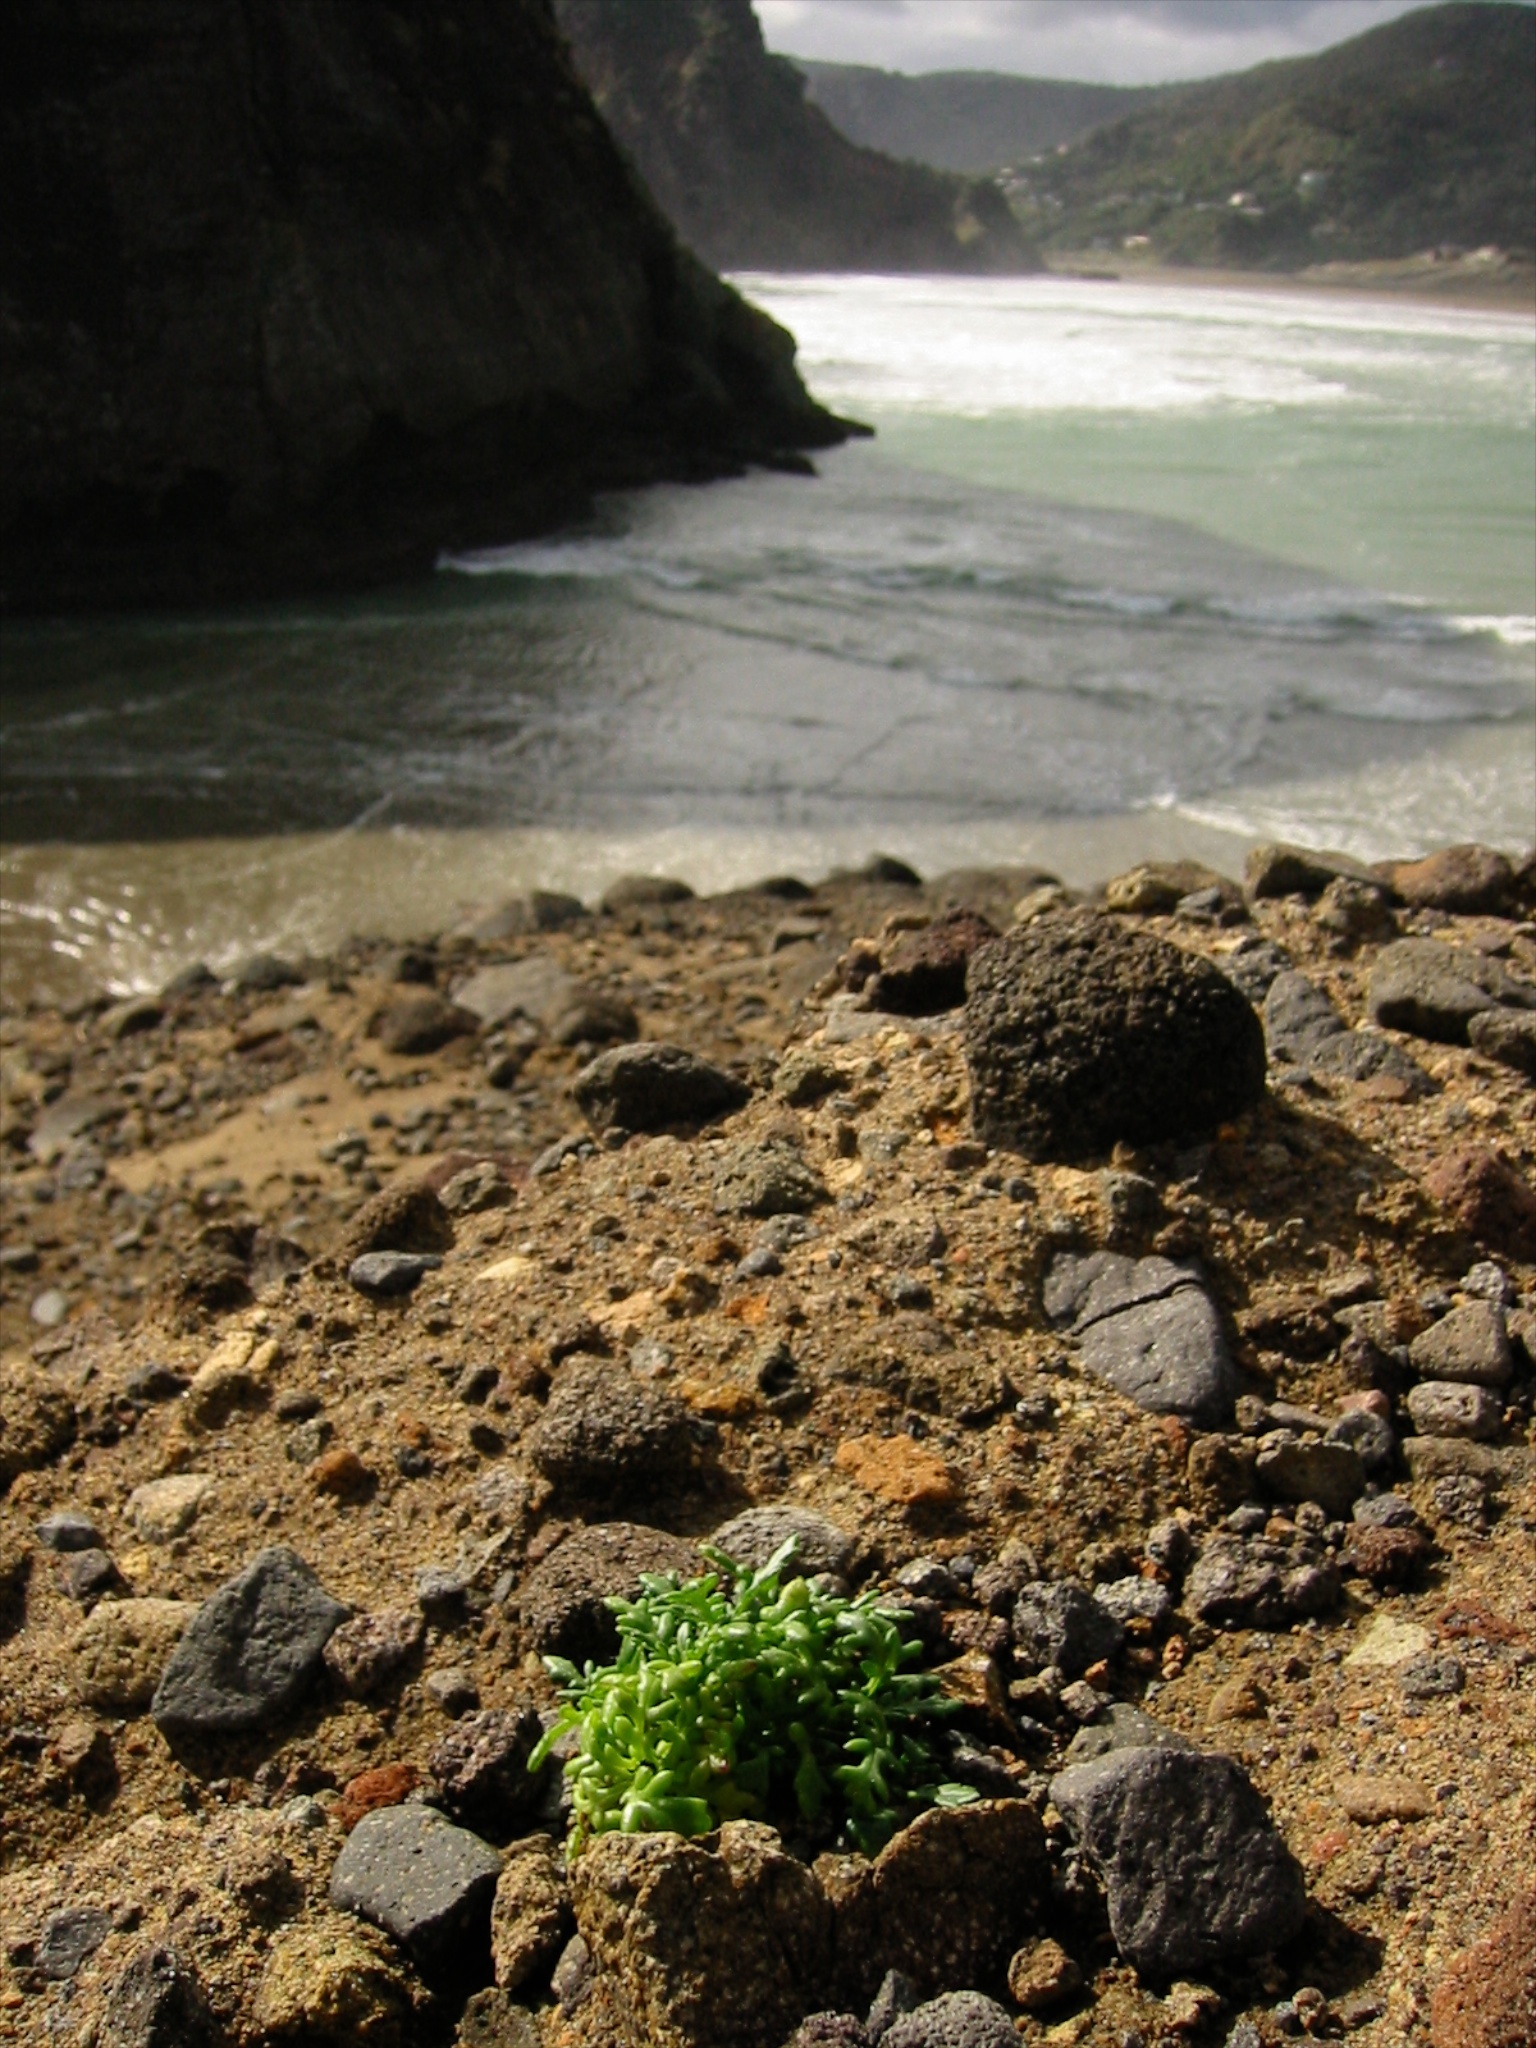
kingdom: Plantae
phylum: Tracheophyta
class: Magnoliopsida
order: Asterales
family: Asteraceae
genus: Senecio
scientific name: Senecio lautus
